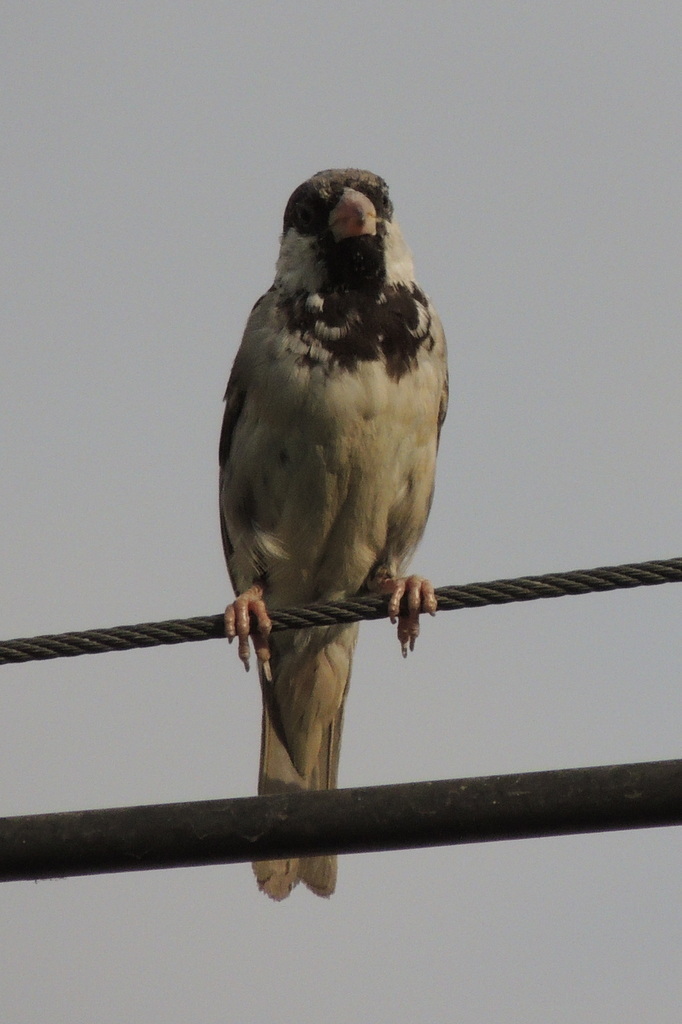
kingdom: Animalia
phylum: Chordata
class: Aves
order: Passeriformes
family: Passeridae
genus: Passer
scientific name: Passer domesticus
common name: House sparrow
